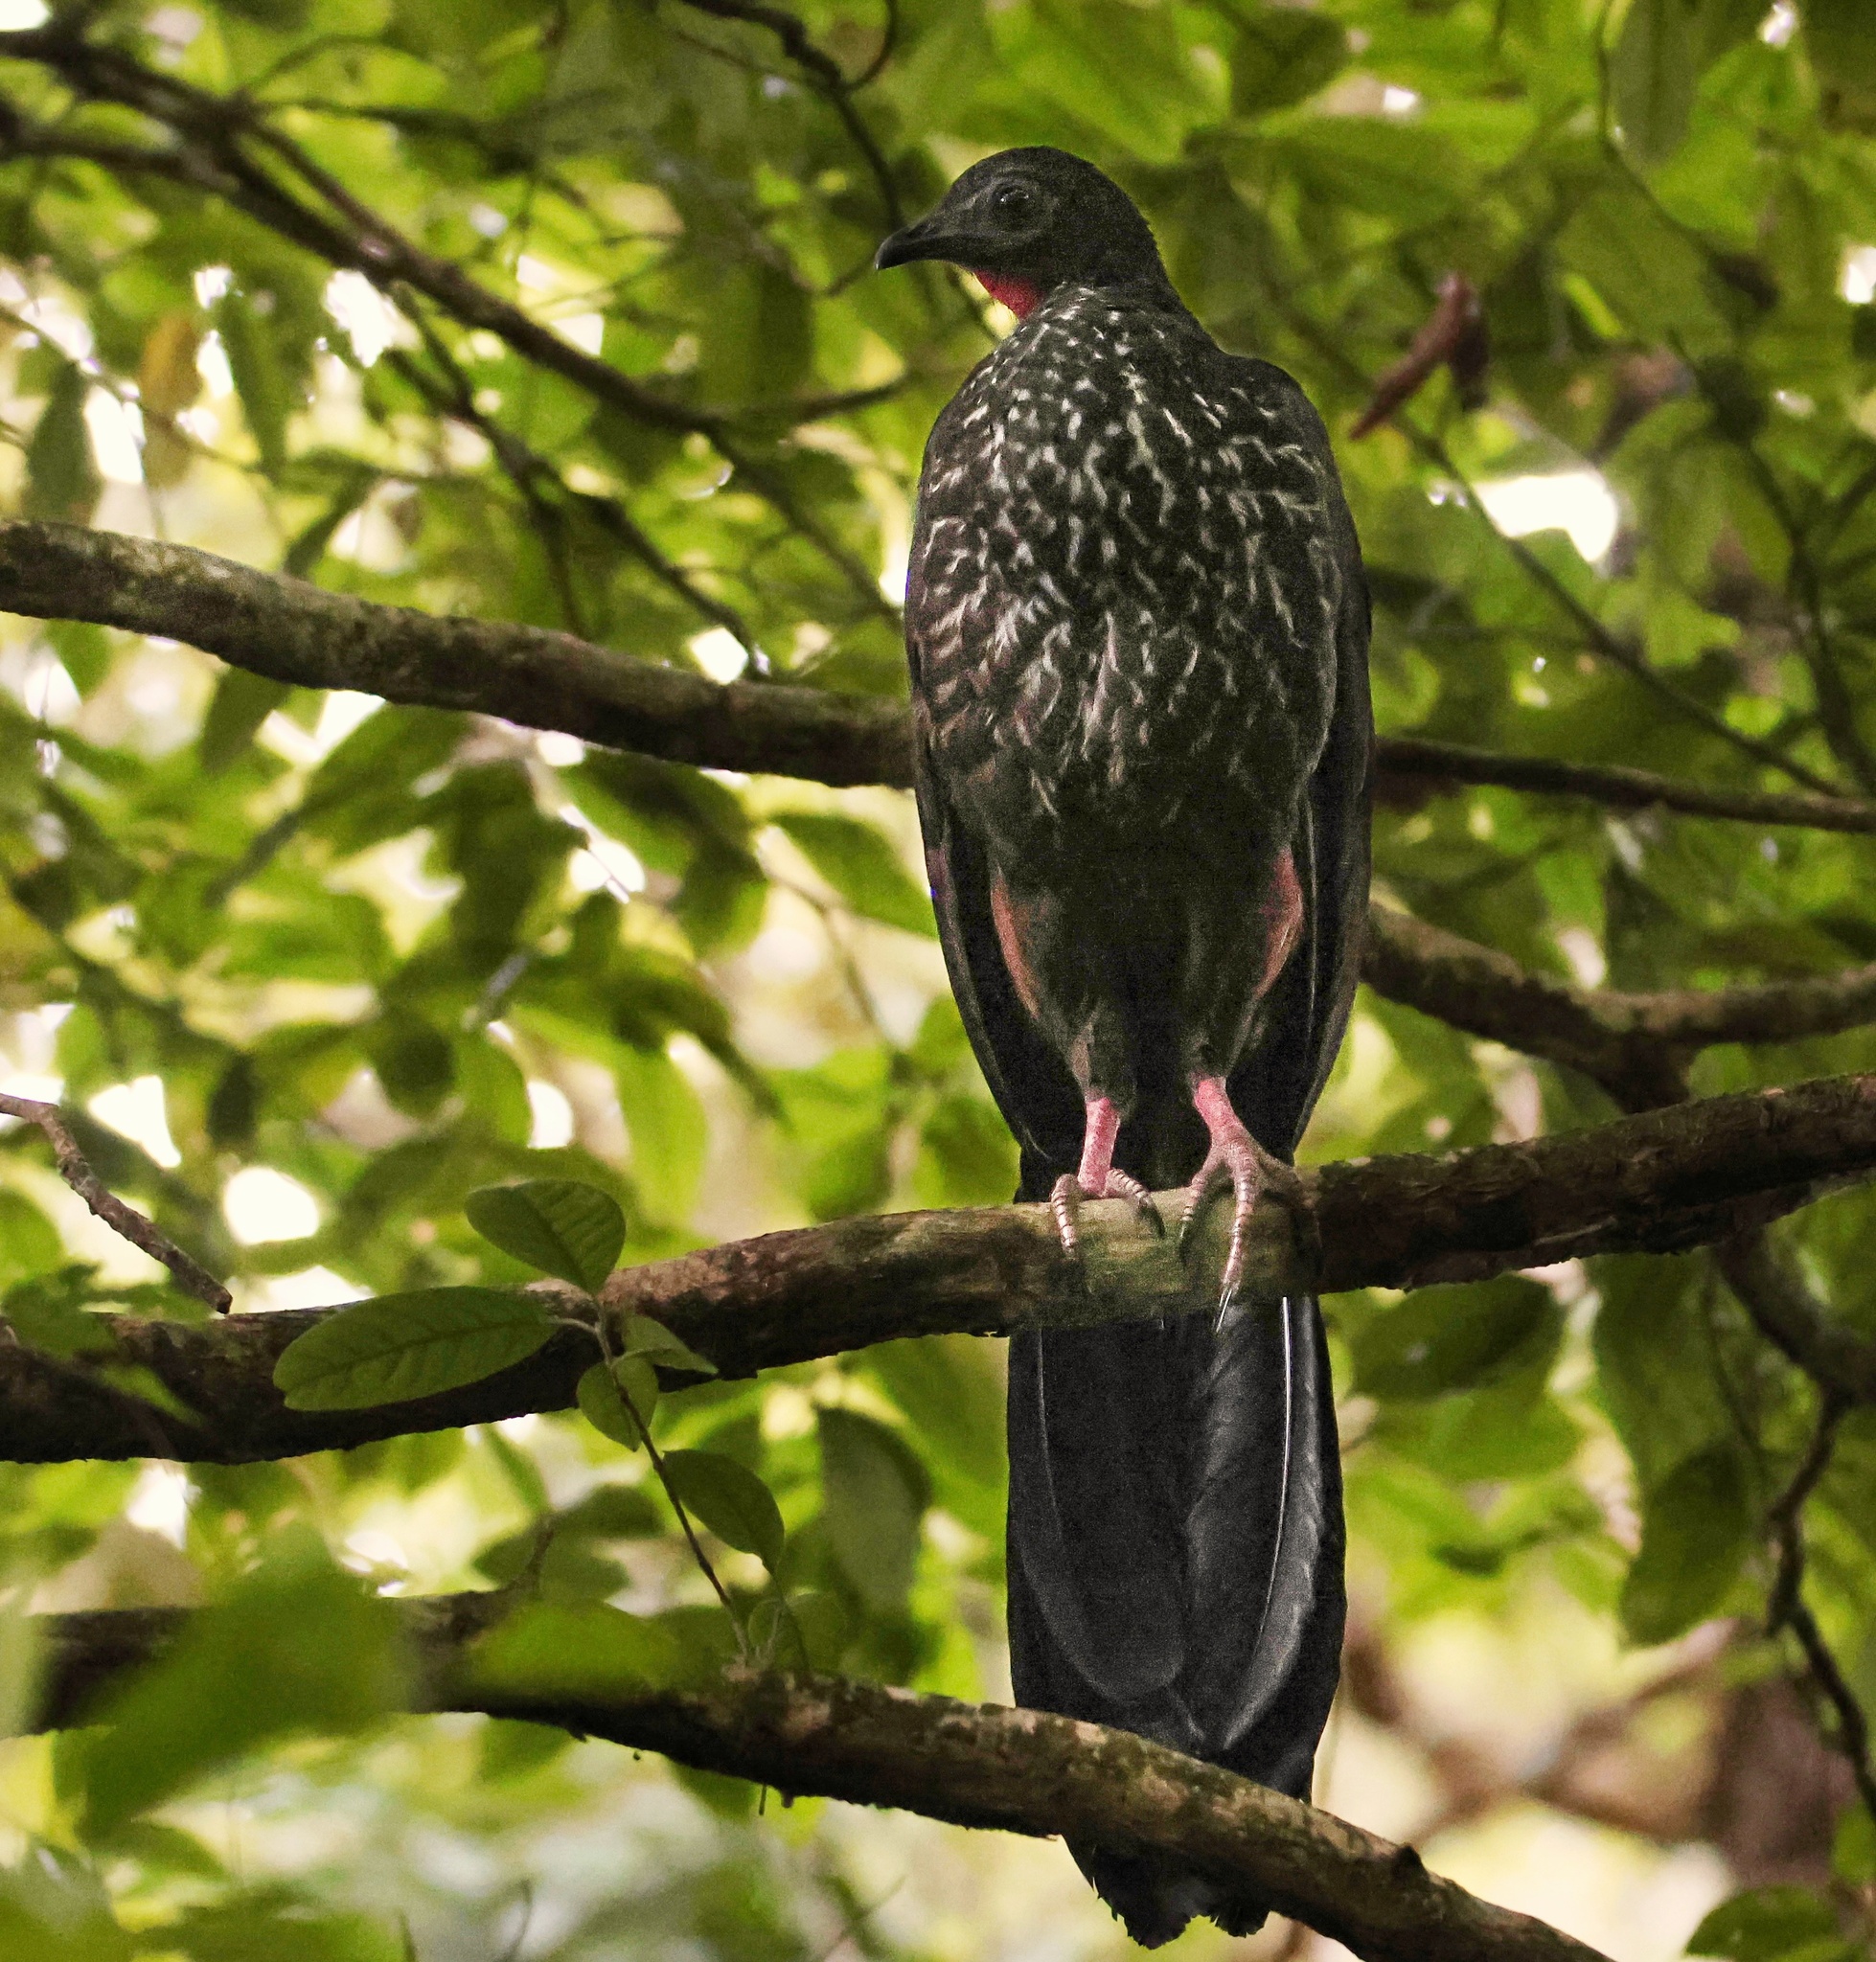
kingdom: Animalia
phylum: Chordata
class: Aves
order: Galliformes
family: Cracidae
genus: Penelope
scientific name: Penelope purpurascens
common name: Crested guan
